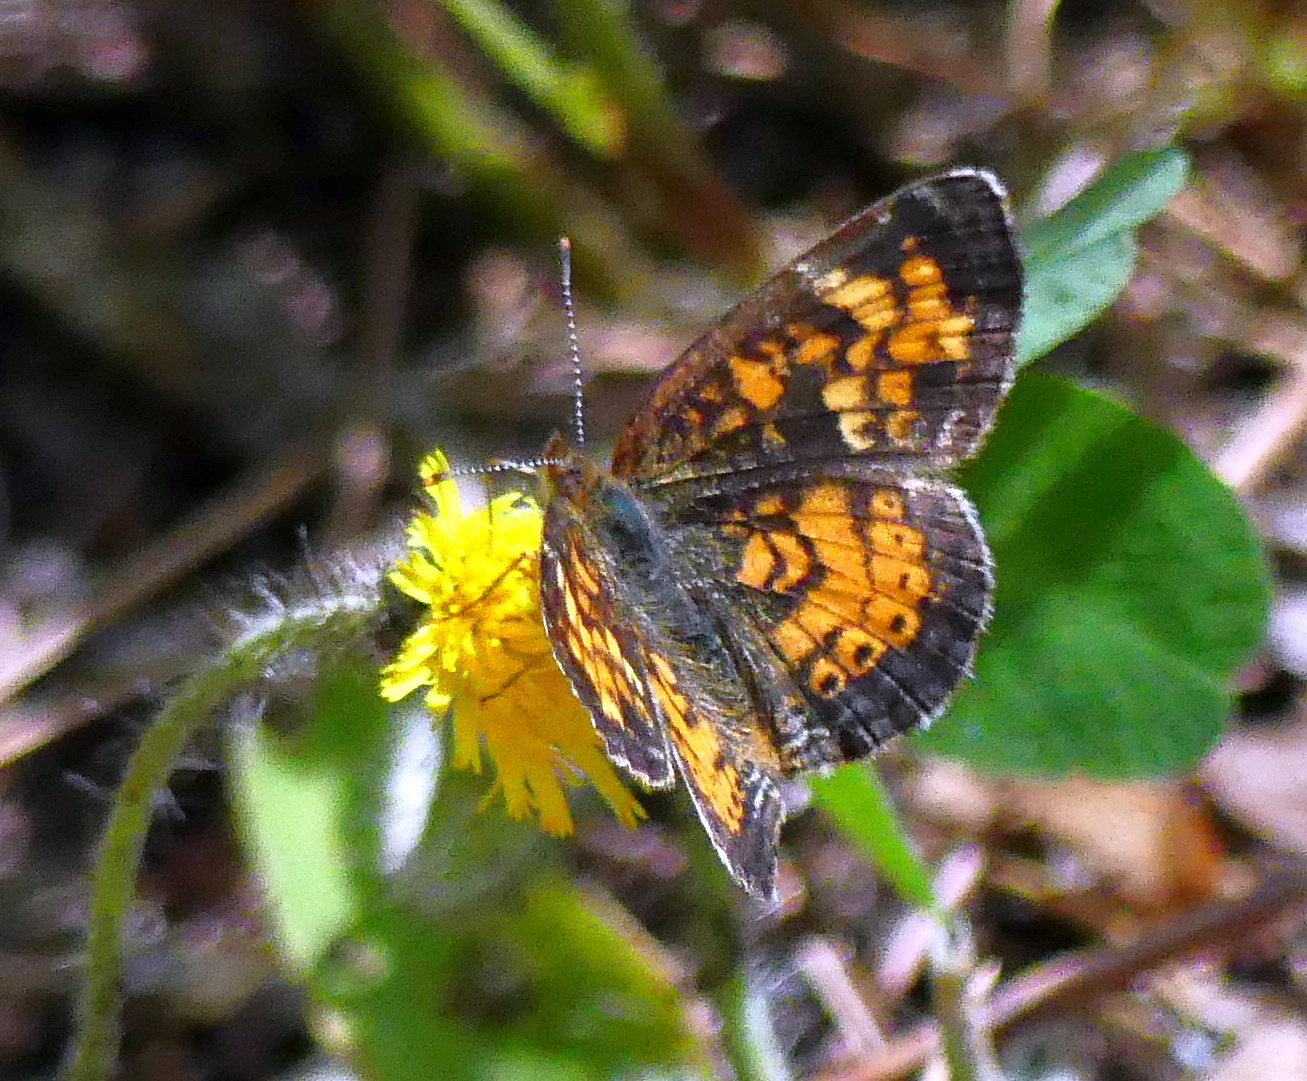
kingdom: Animalia
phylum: Arthropoda
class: Insecta
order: Lepidoptera
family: Nymphalidae
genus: Phyciodes
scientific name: Phyciodes tharos
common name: Pearl crescent
